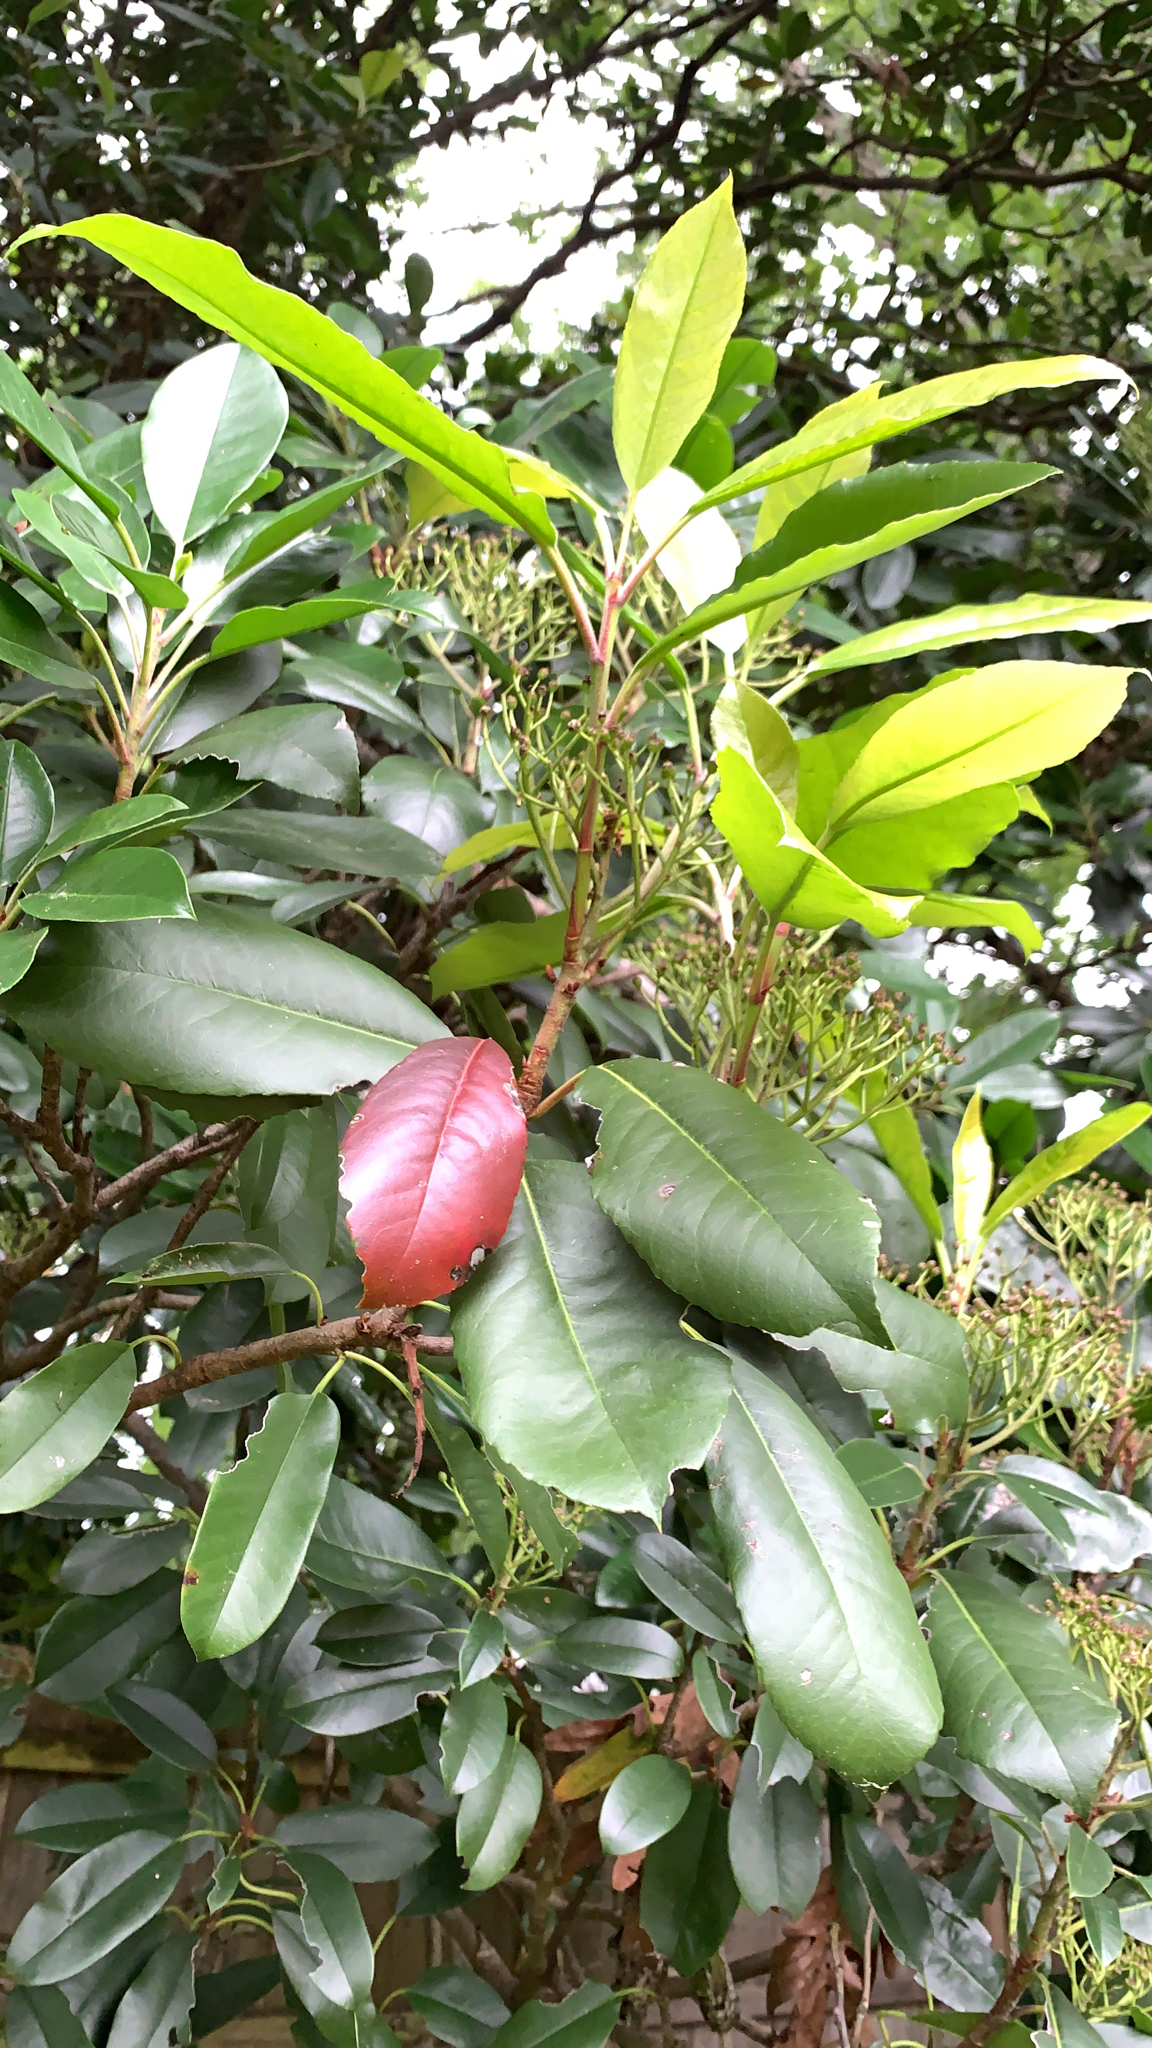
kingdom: Plantae
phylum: Tracheophyta
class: Magnoliopsida
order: Rosales
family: Rosaceae
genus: Photinia
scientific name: Photinia serratifolia
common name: Taiwanese photinia
